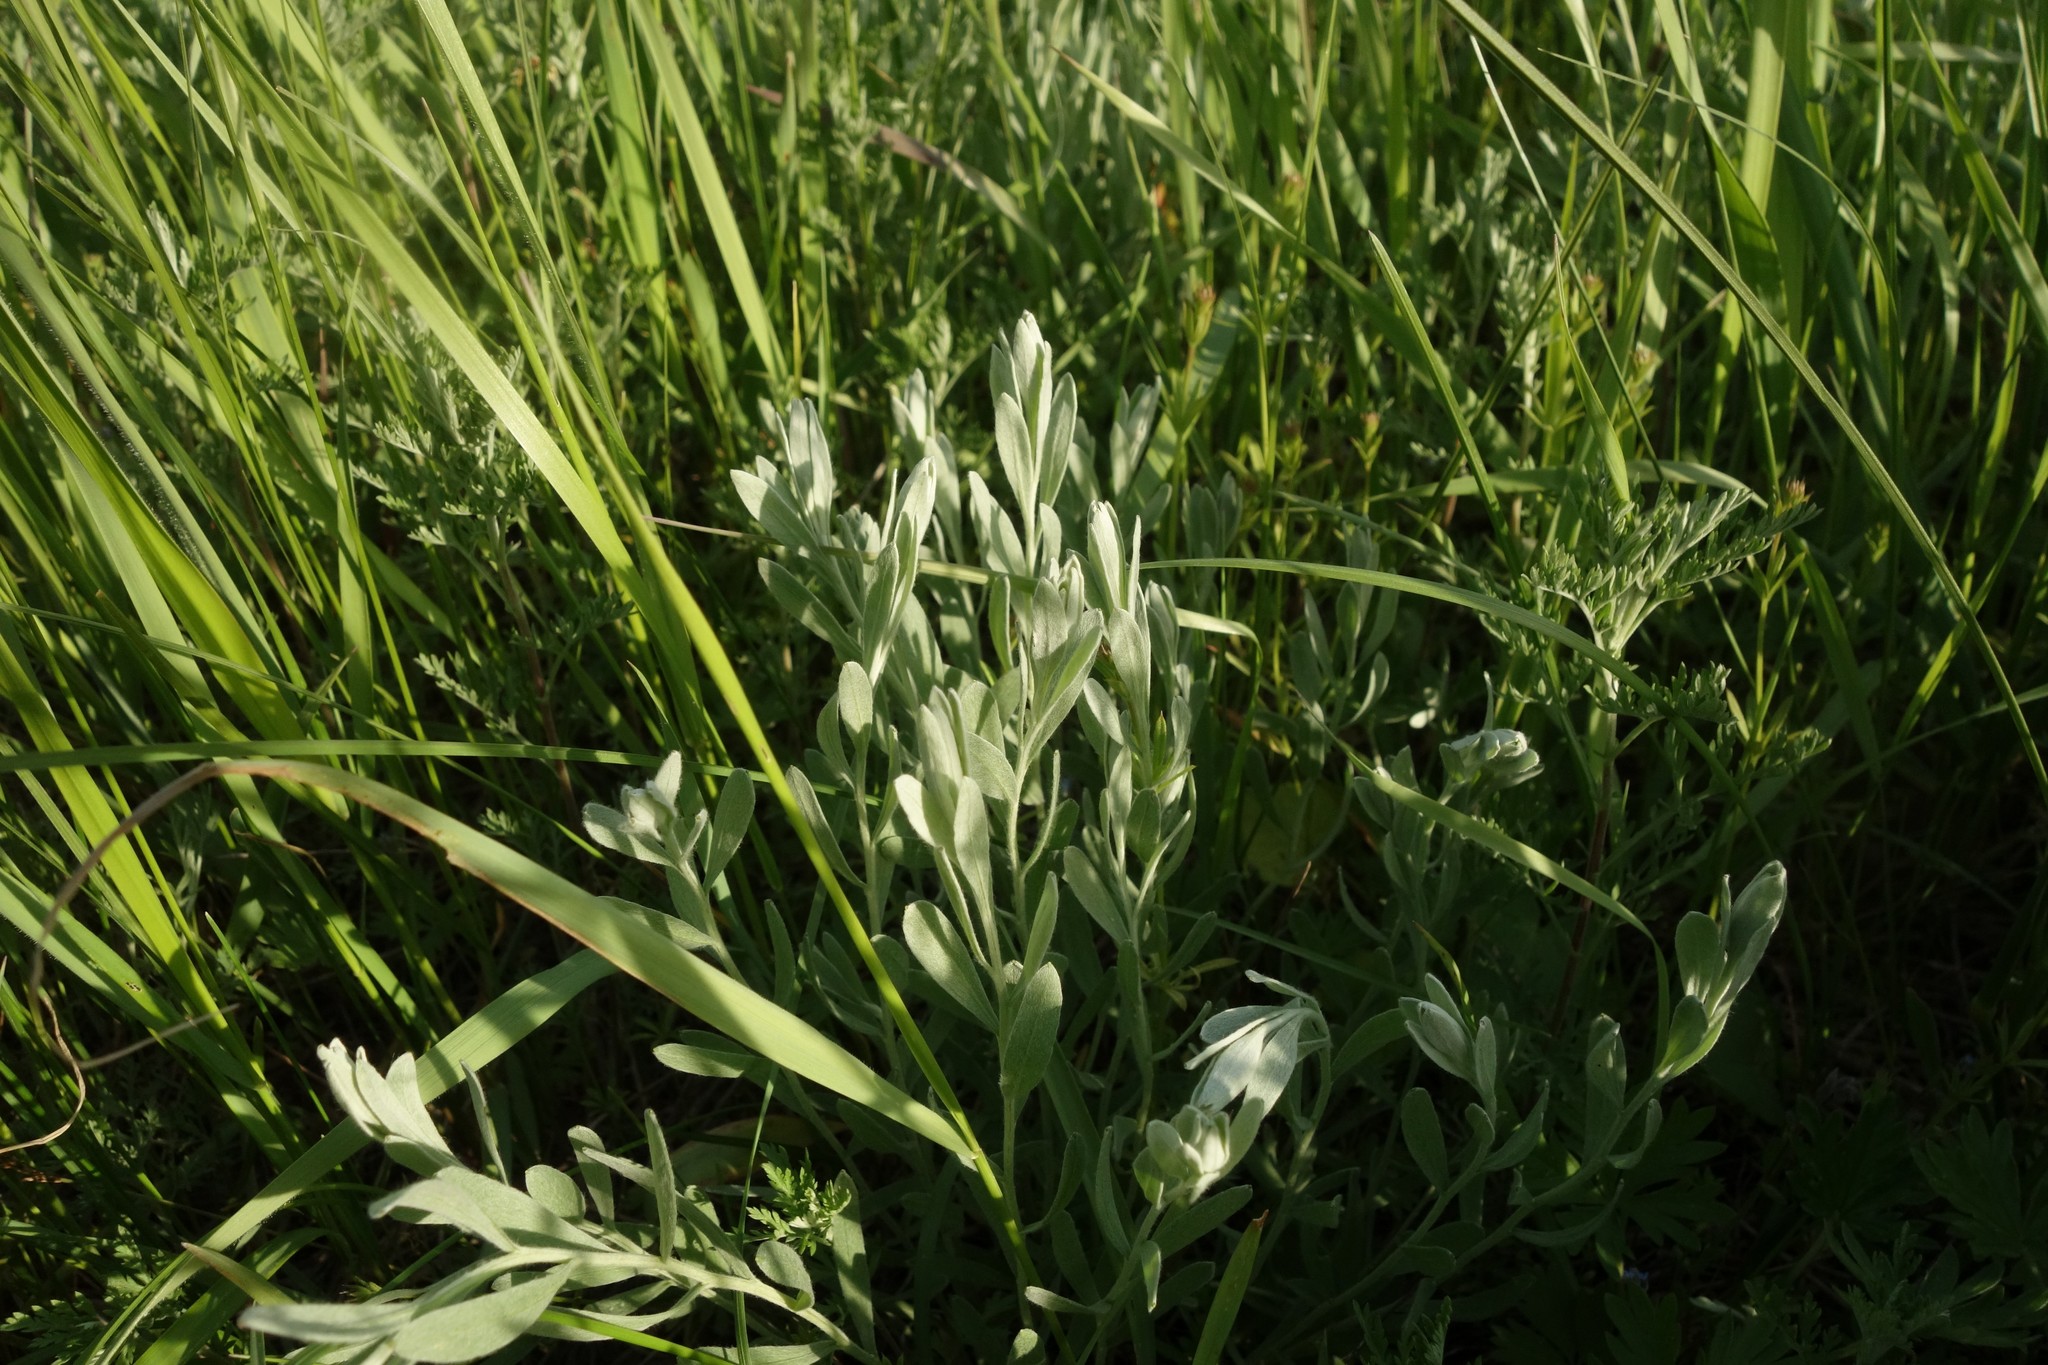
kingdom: Plantae
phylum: Tracheophyta
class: Magnoliopsida
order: Asterales
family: Asteraceae
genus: Galatella
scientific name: Galatella villosa
